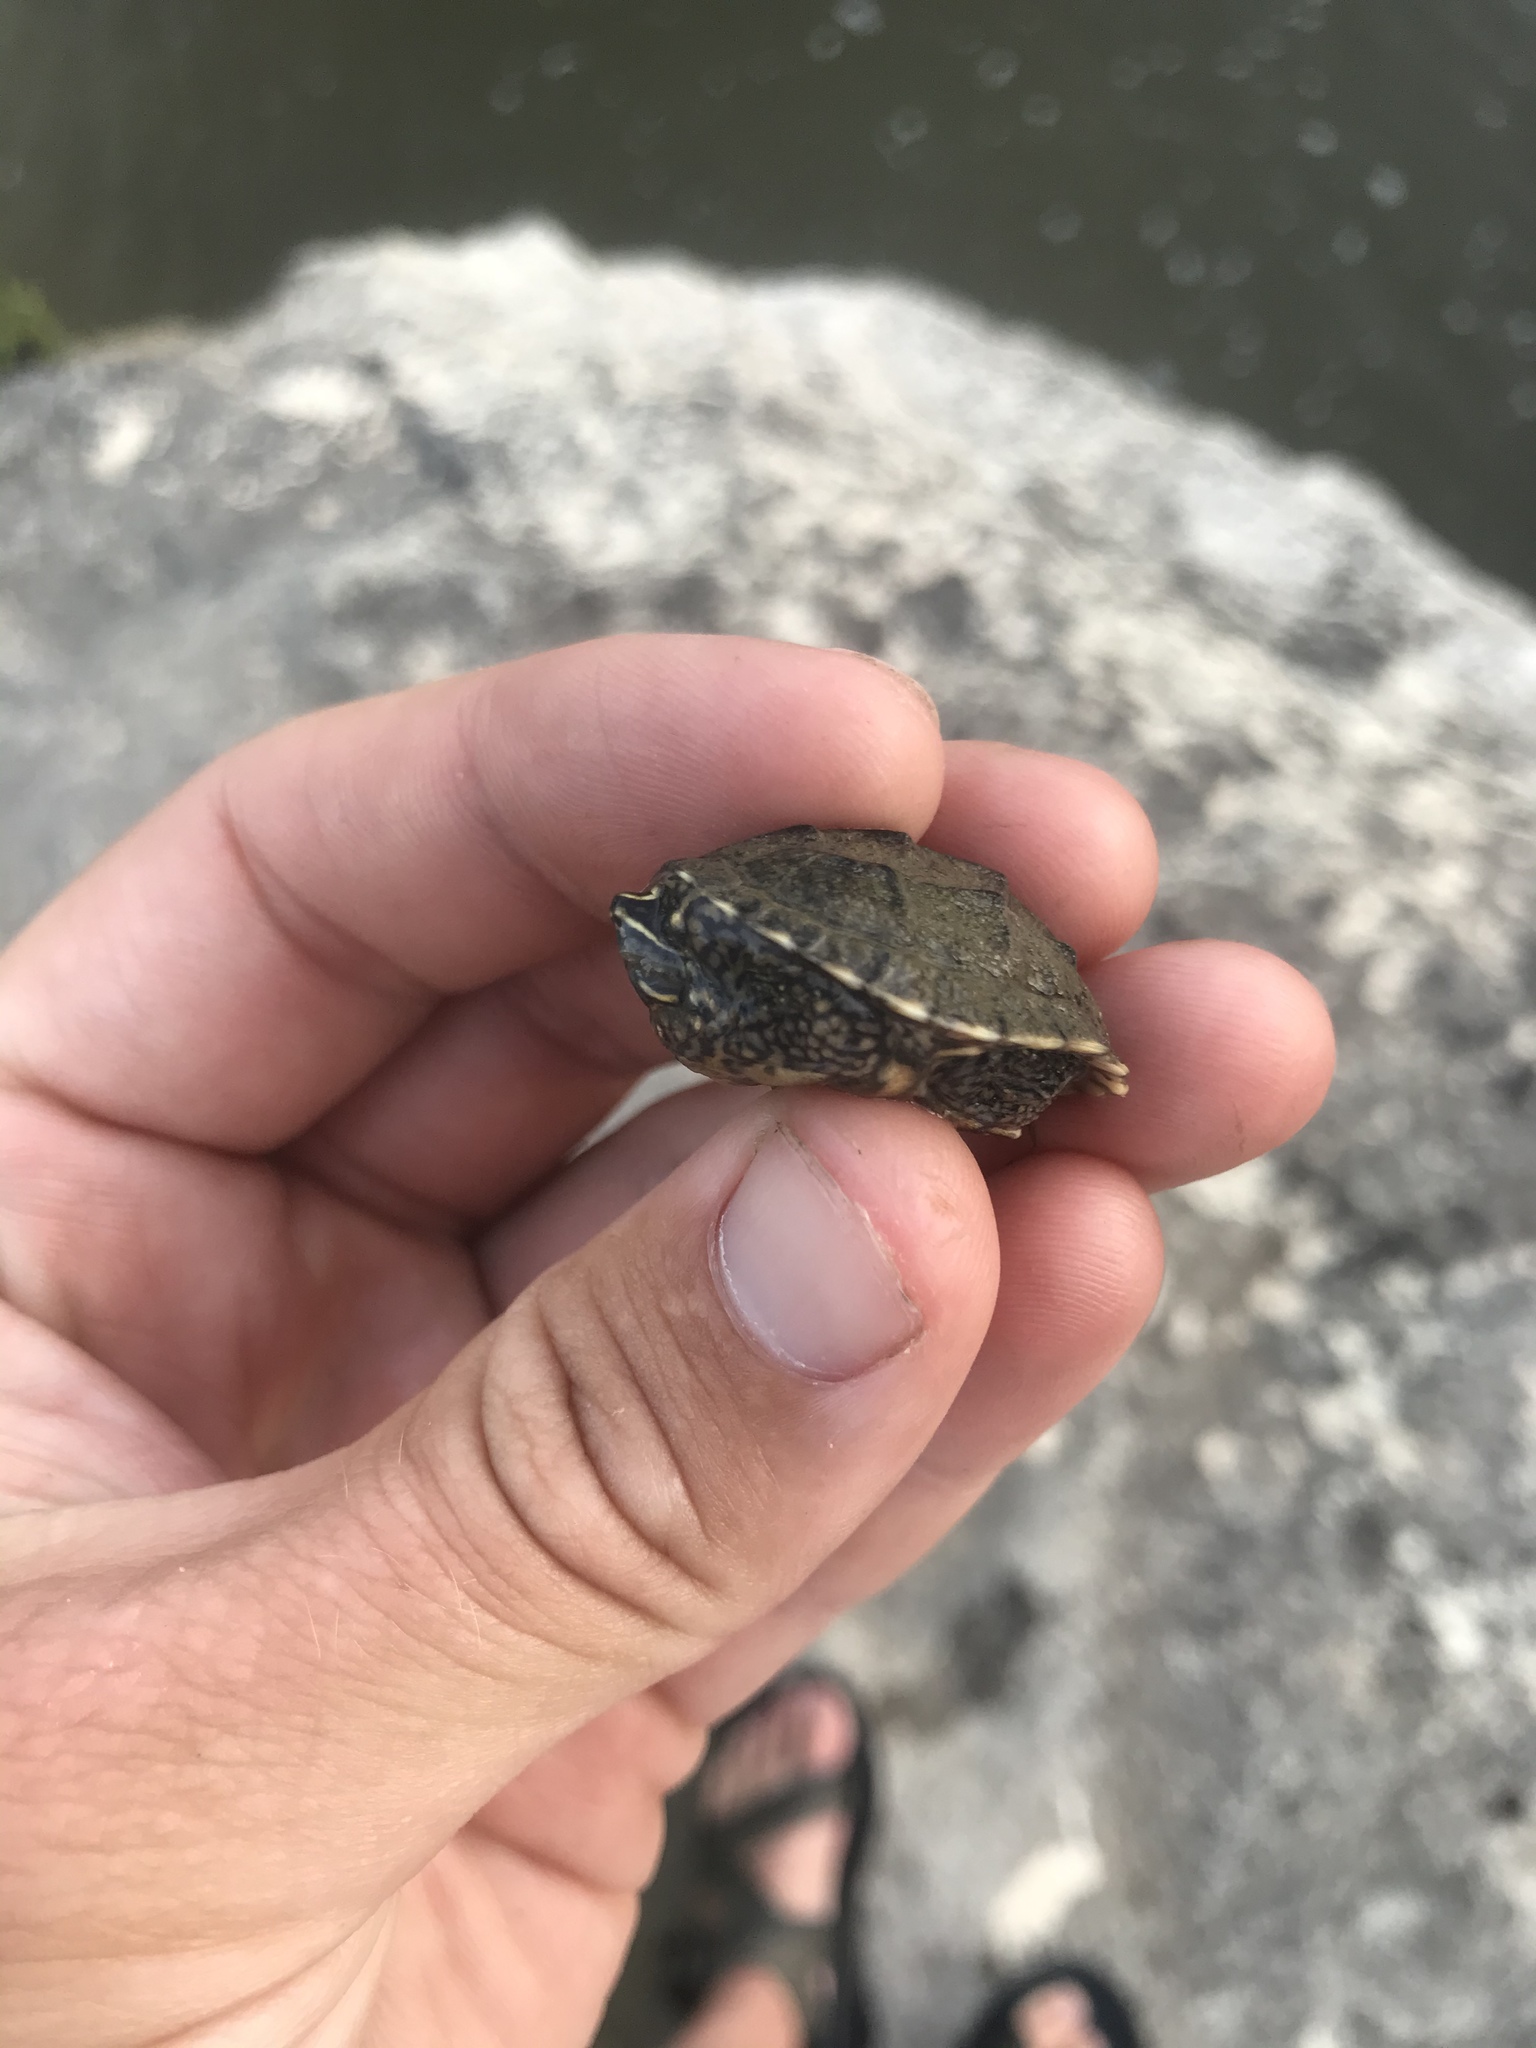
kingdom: Animalia
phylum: Chordata
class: Testudines
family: Kinosternidae
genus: Sternotherus
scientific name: Sternotherus odoratus
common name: Common musk turtle
